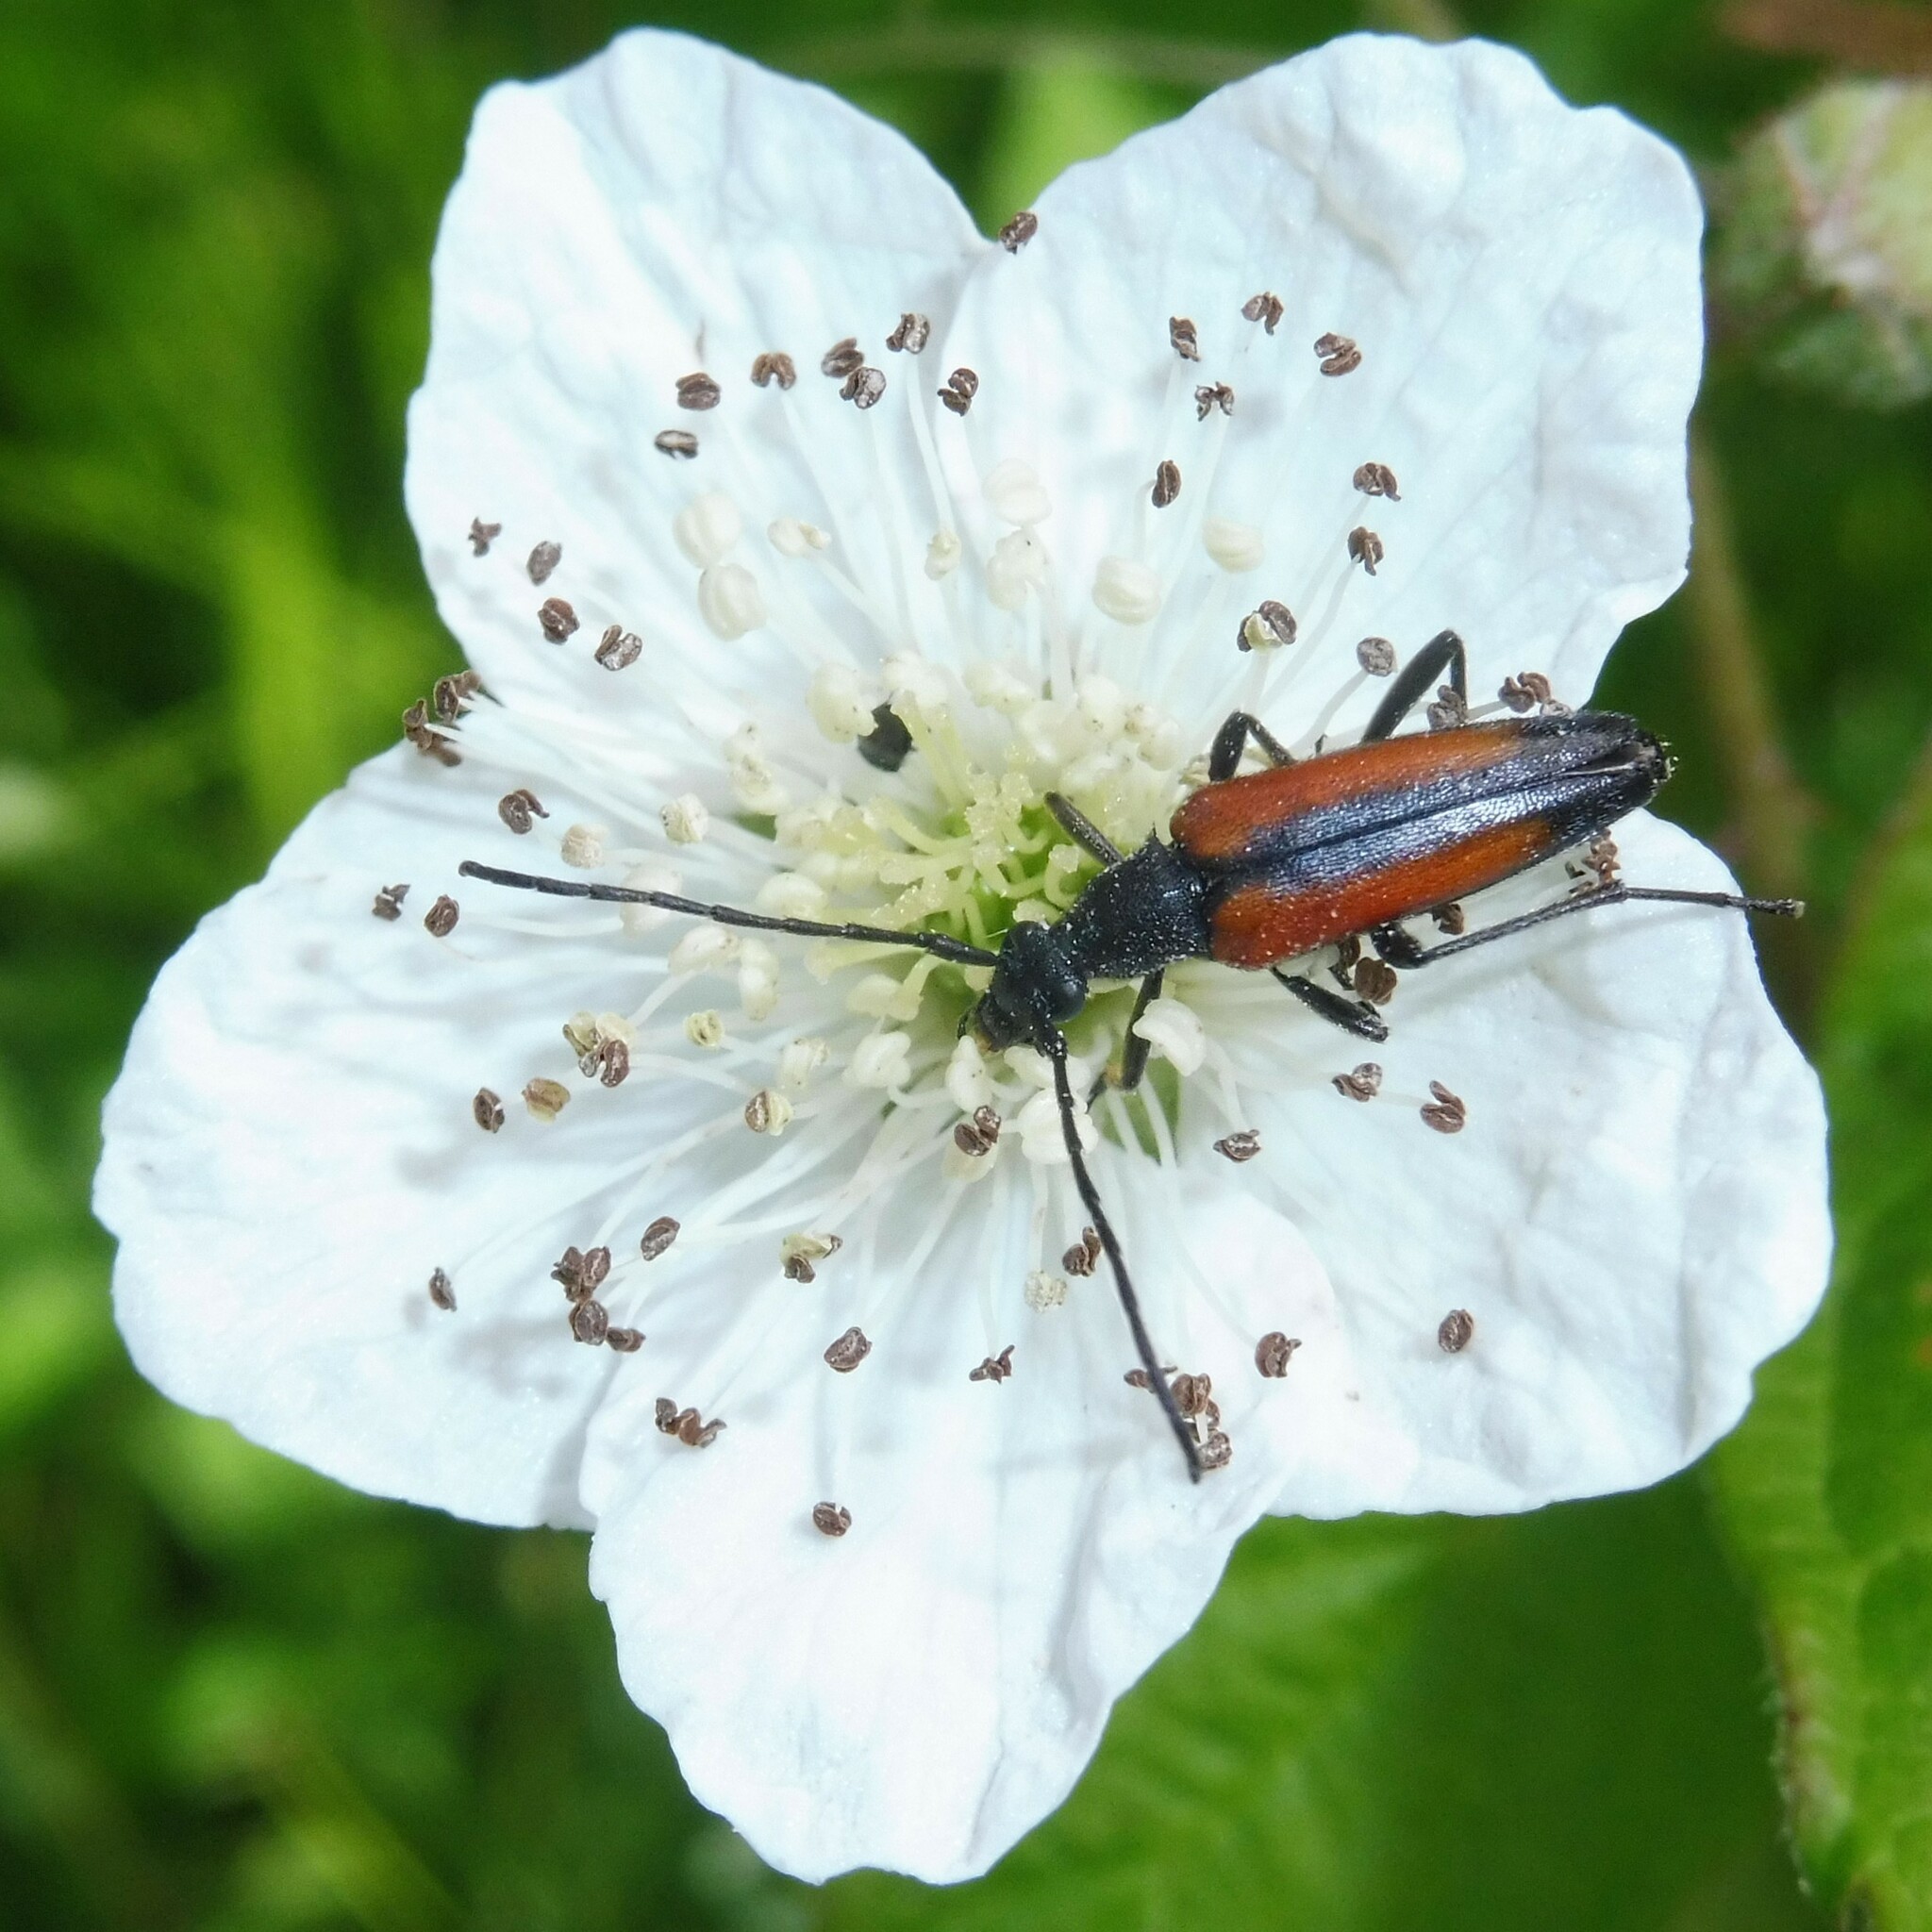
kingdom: Animalia
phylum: Arthropoda
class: Insecta
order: Coleoptera
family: Cerambycidae
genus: Stenurella
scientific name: Stenurella melanura
